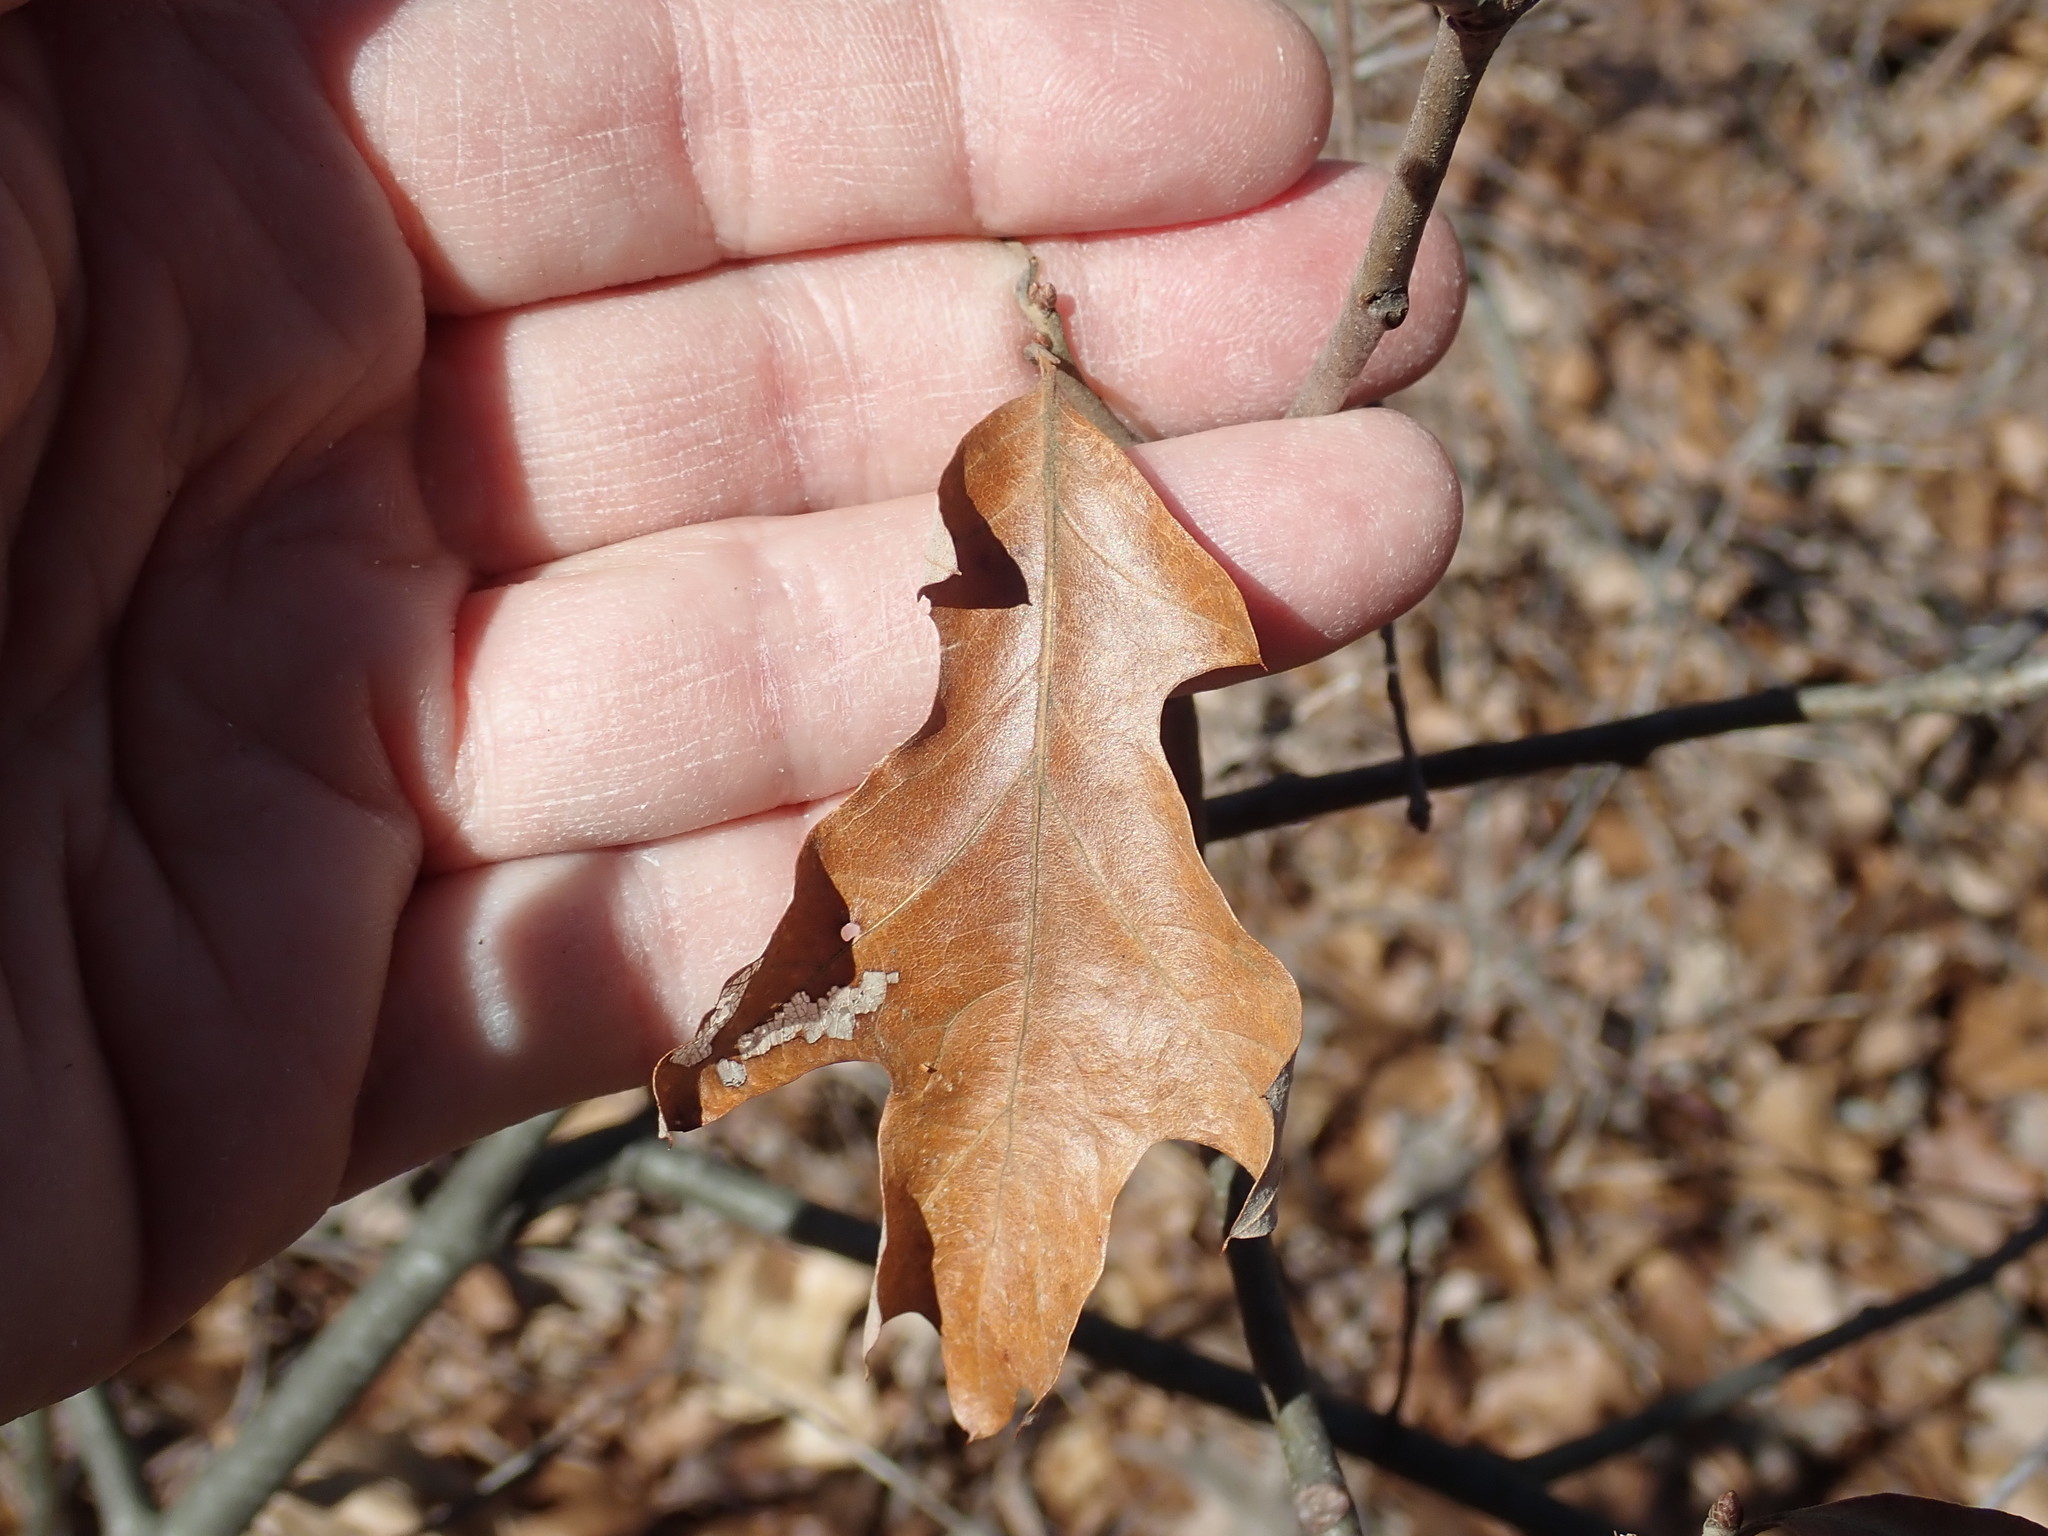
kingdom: Plantae
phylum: Tracheophyta
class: Magnoliopsida
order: Fagales
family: Fagaceae
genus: Quercus
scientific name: Quercus ilicifolia
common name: Bear oak
